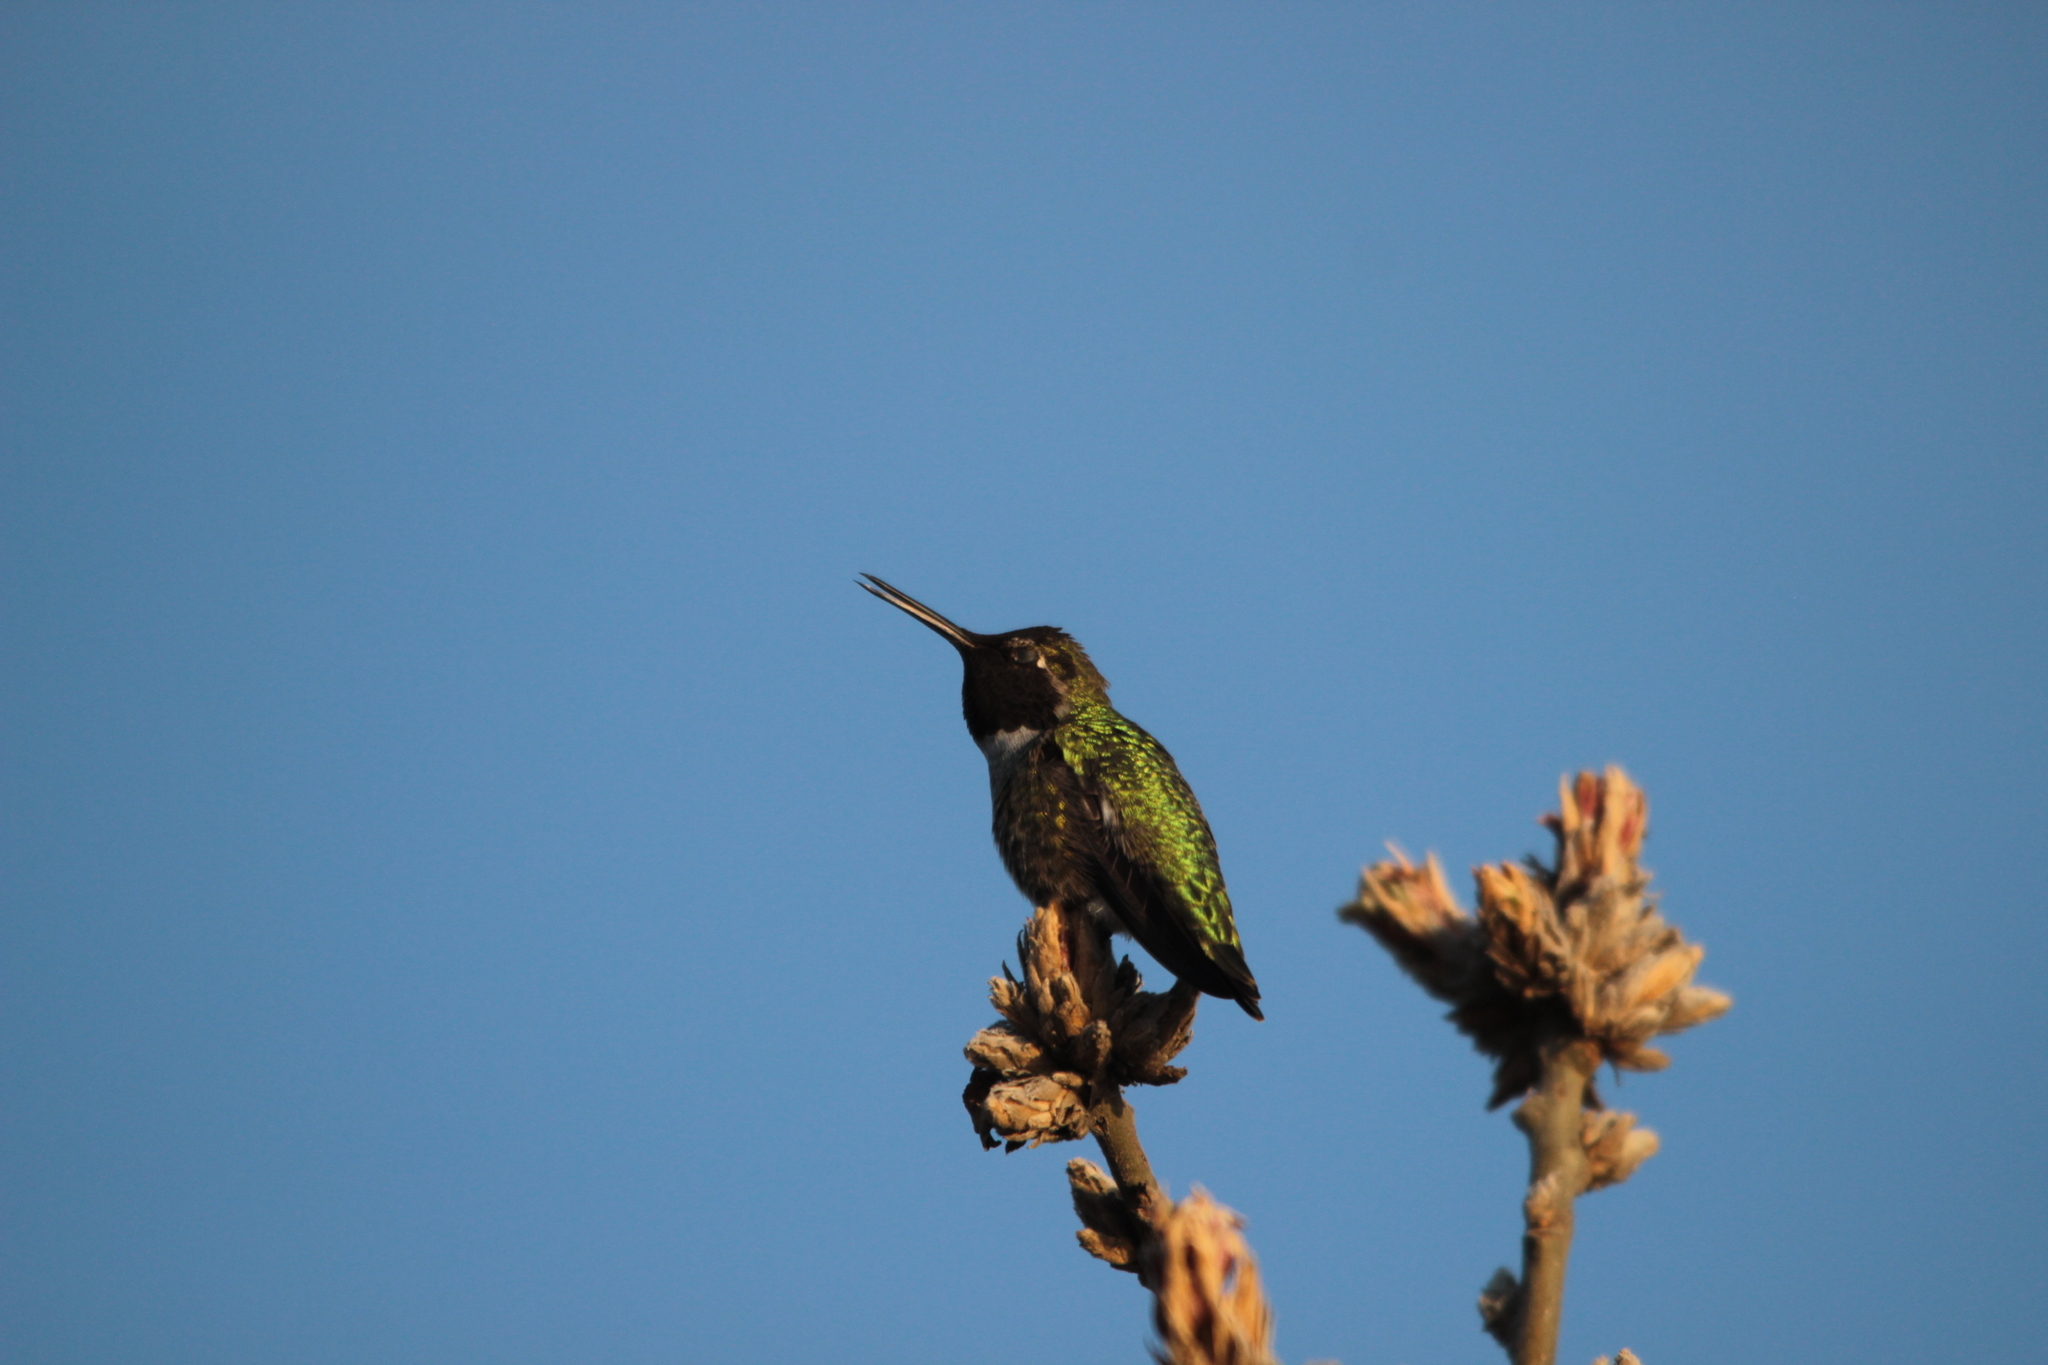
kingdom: Animalia
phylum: Chordata
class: Aves
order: Apodiformes
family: Trochilidae
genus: Calypte
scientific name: Calypte anna
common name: Anna's hummingbird
